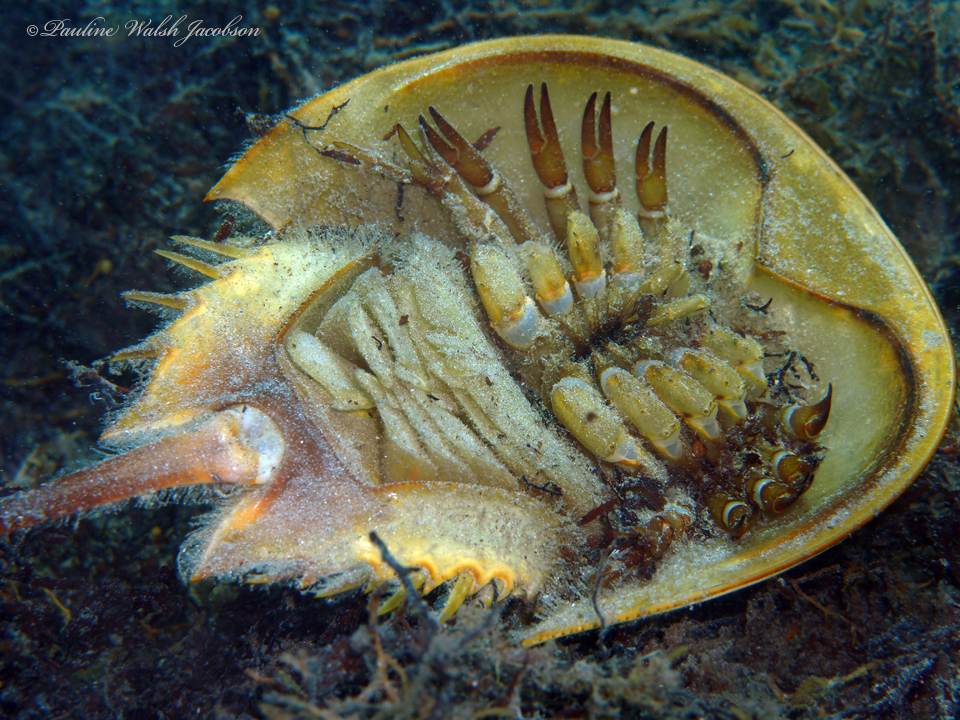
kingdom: Animalia
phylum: Arthropoda
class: Merostomata
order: Xiphosurida
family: Limulidae
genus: Limulus
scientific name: Limulus polyphemus
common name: Horseshoe crab
